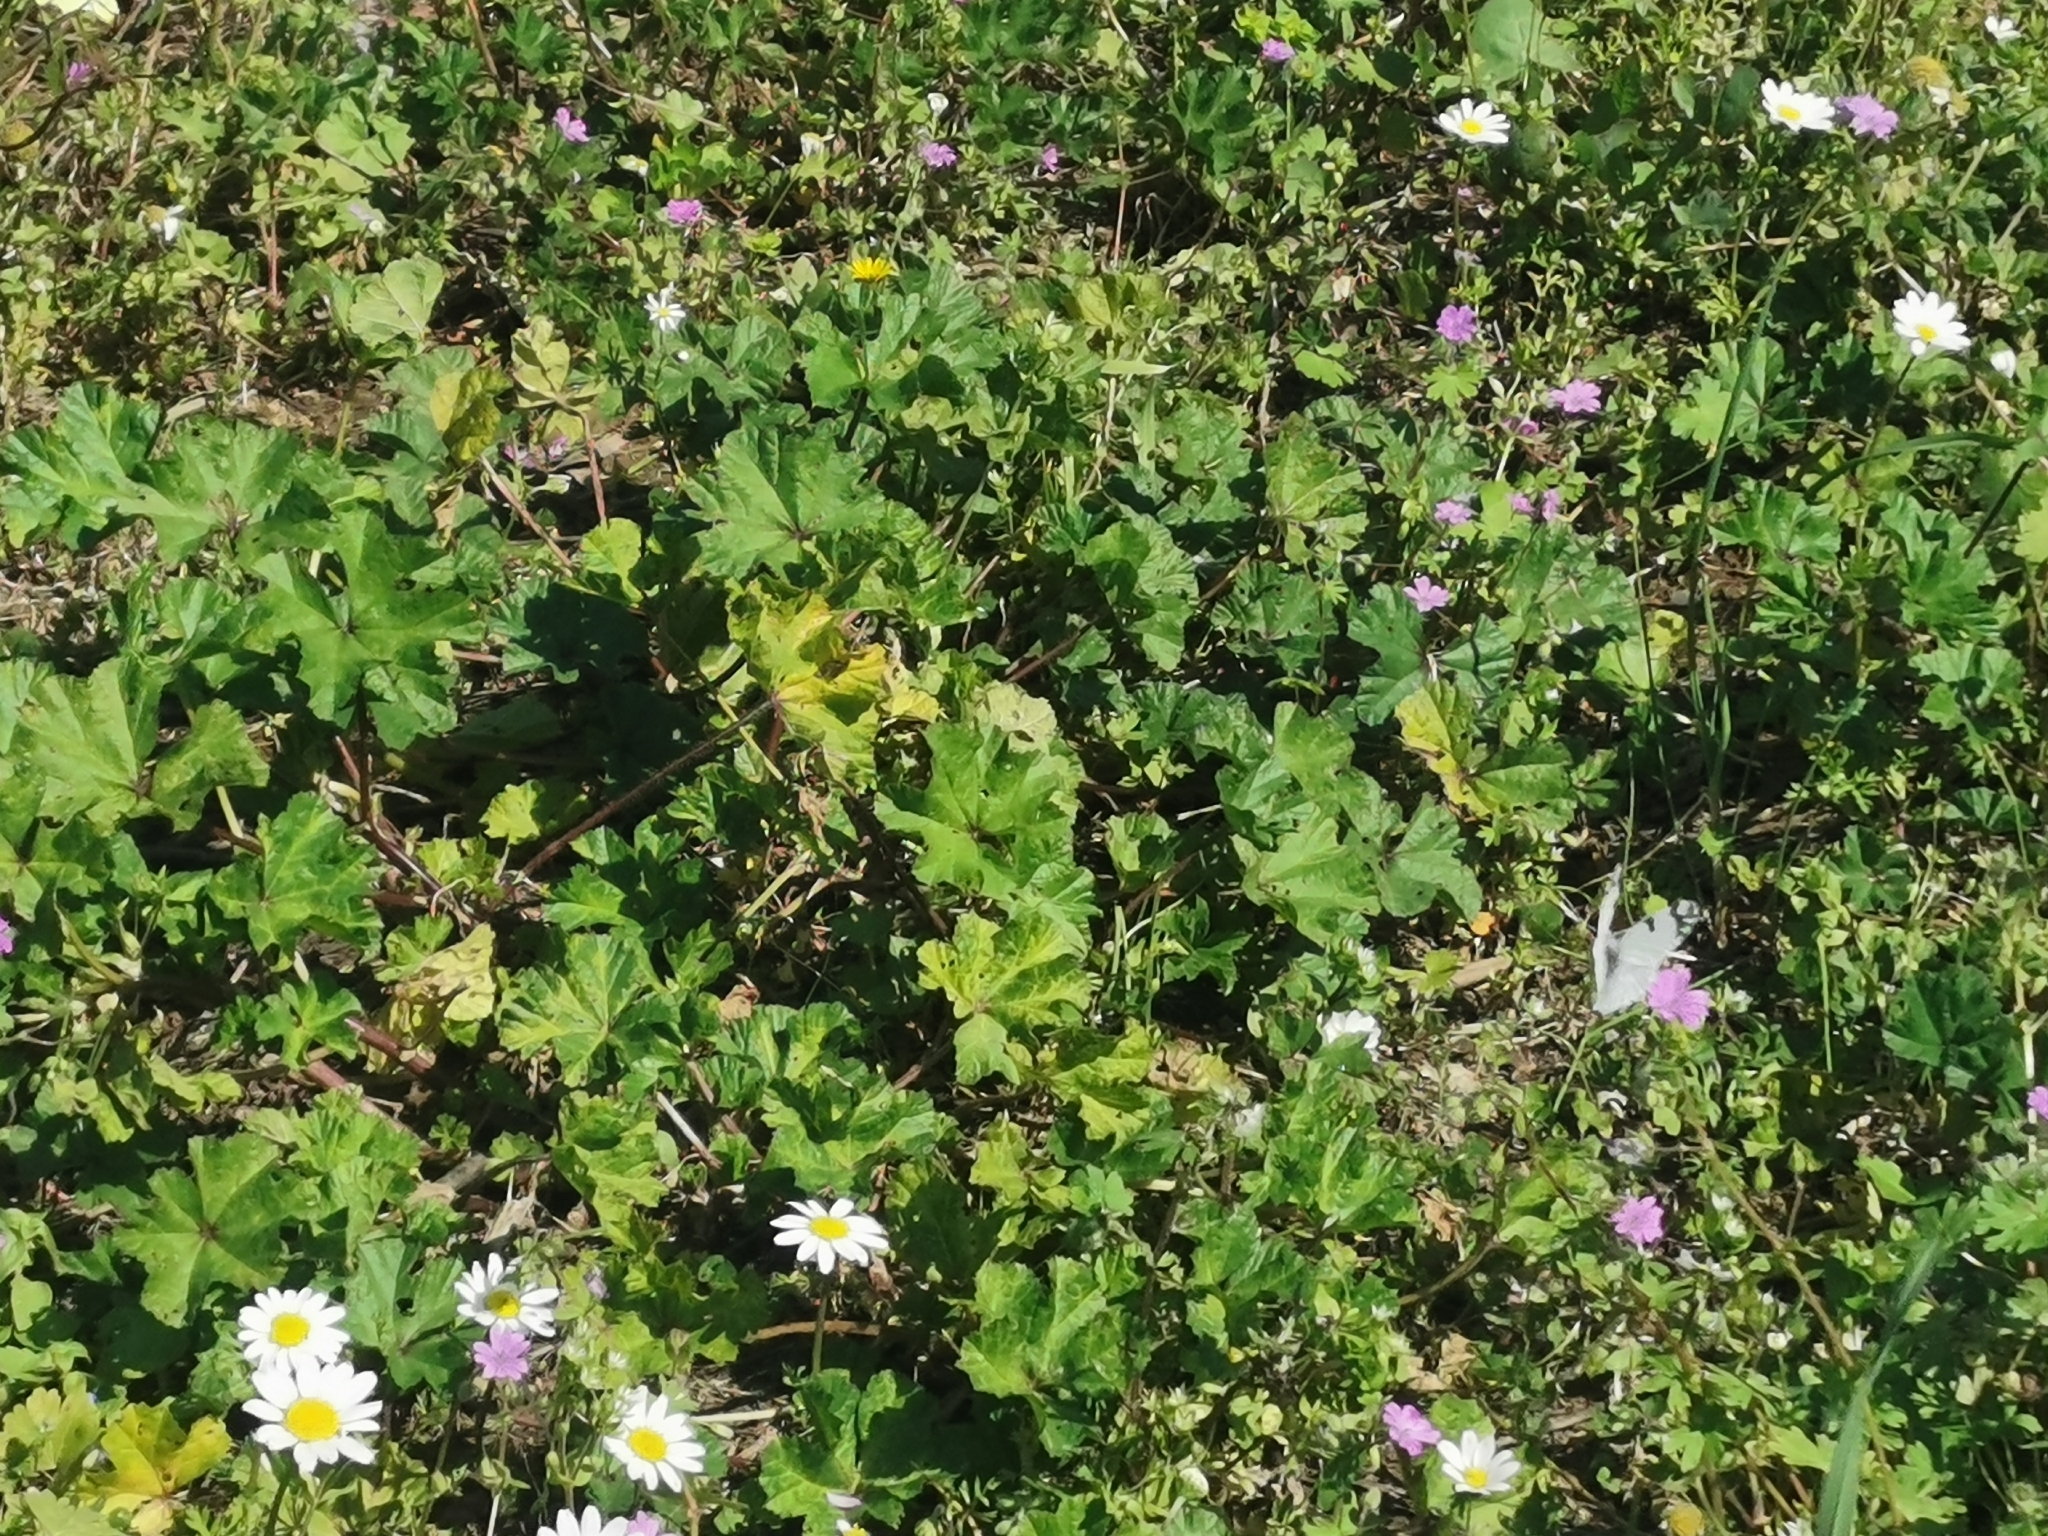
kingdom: Animalia
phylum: Arthropoda
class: Insecta
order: Lepidoptera
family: Pieridae
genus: Pontia
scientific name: Pontia edusa
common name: Eastern bath white
